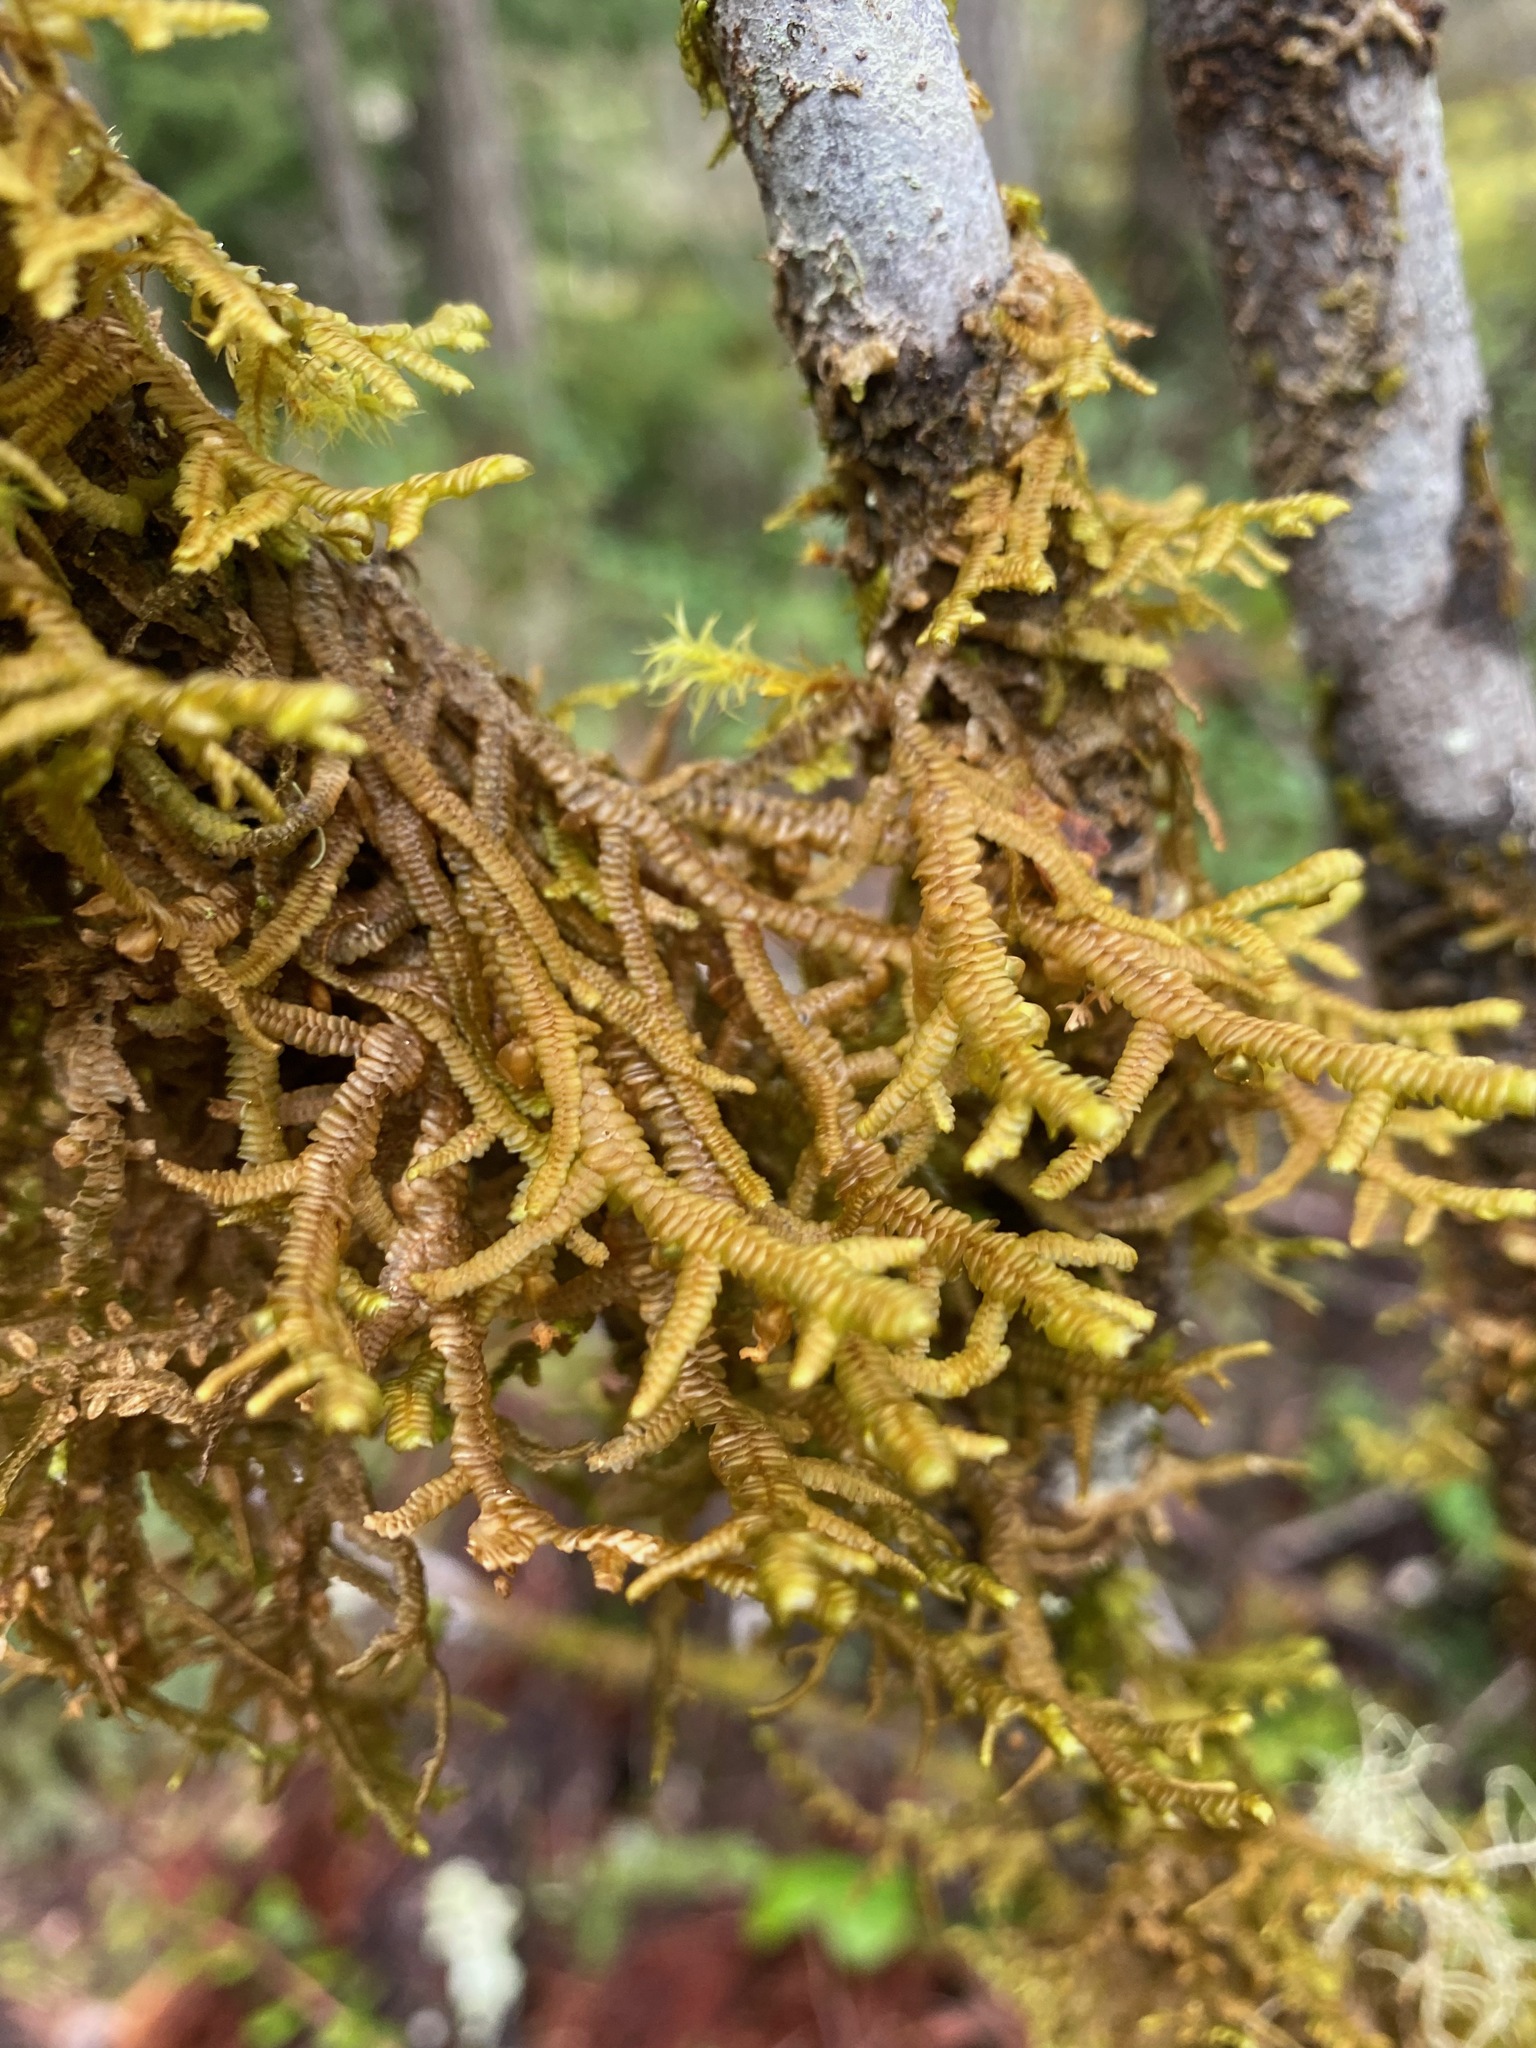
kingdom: Plantae
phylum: Marchantiophyta
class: Jungermanniopsida
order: Porellales
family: Porellaceae
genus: Porella
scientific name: Porella navicularis
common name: Tree ruffle liverwort
